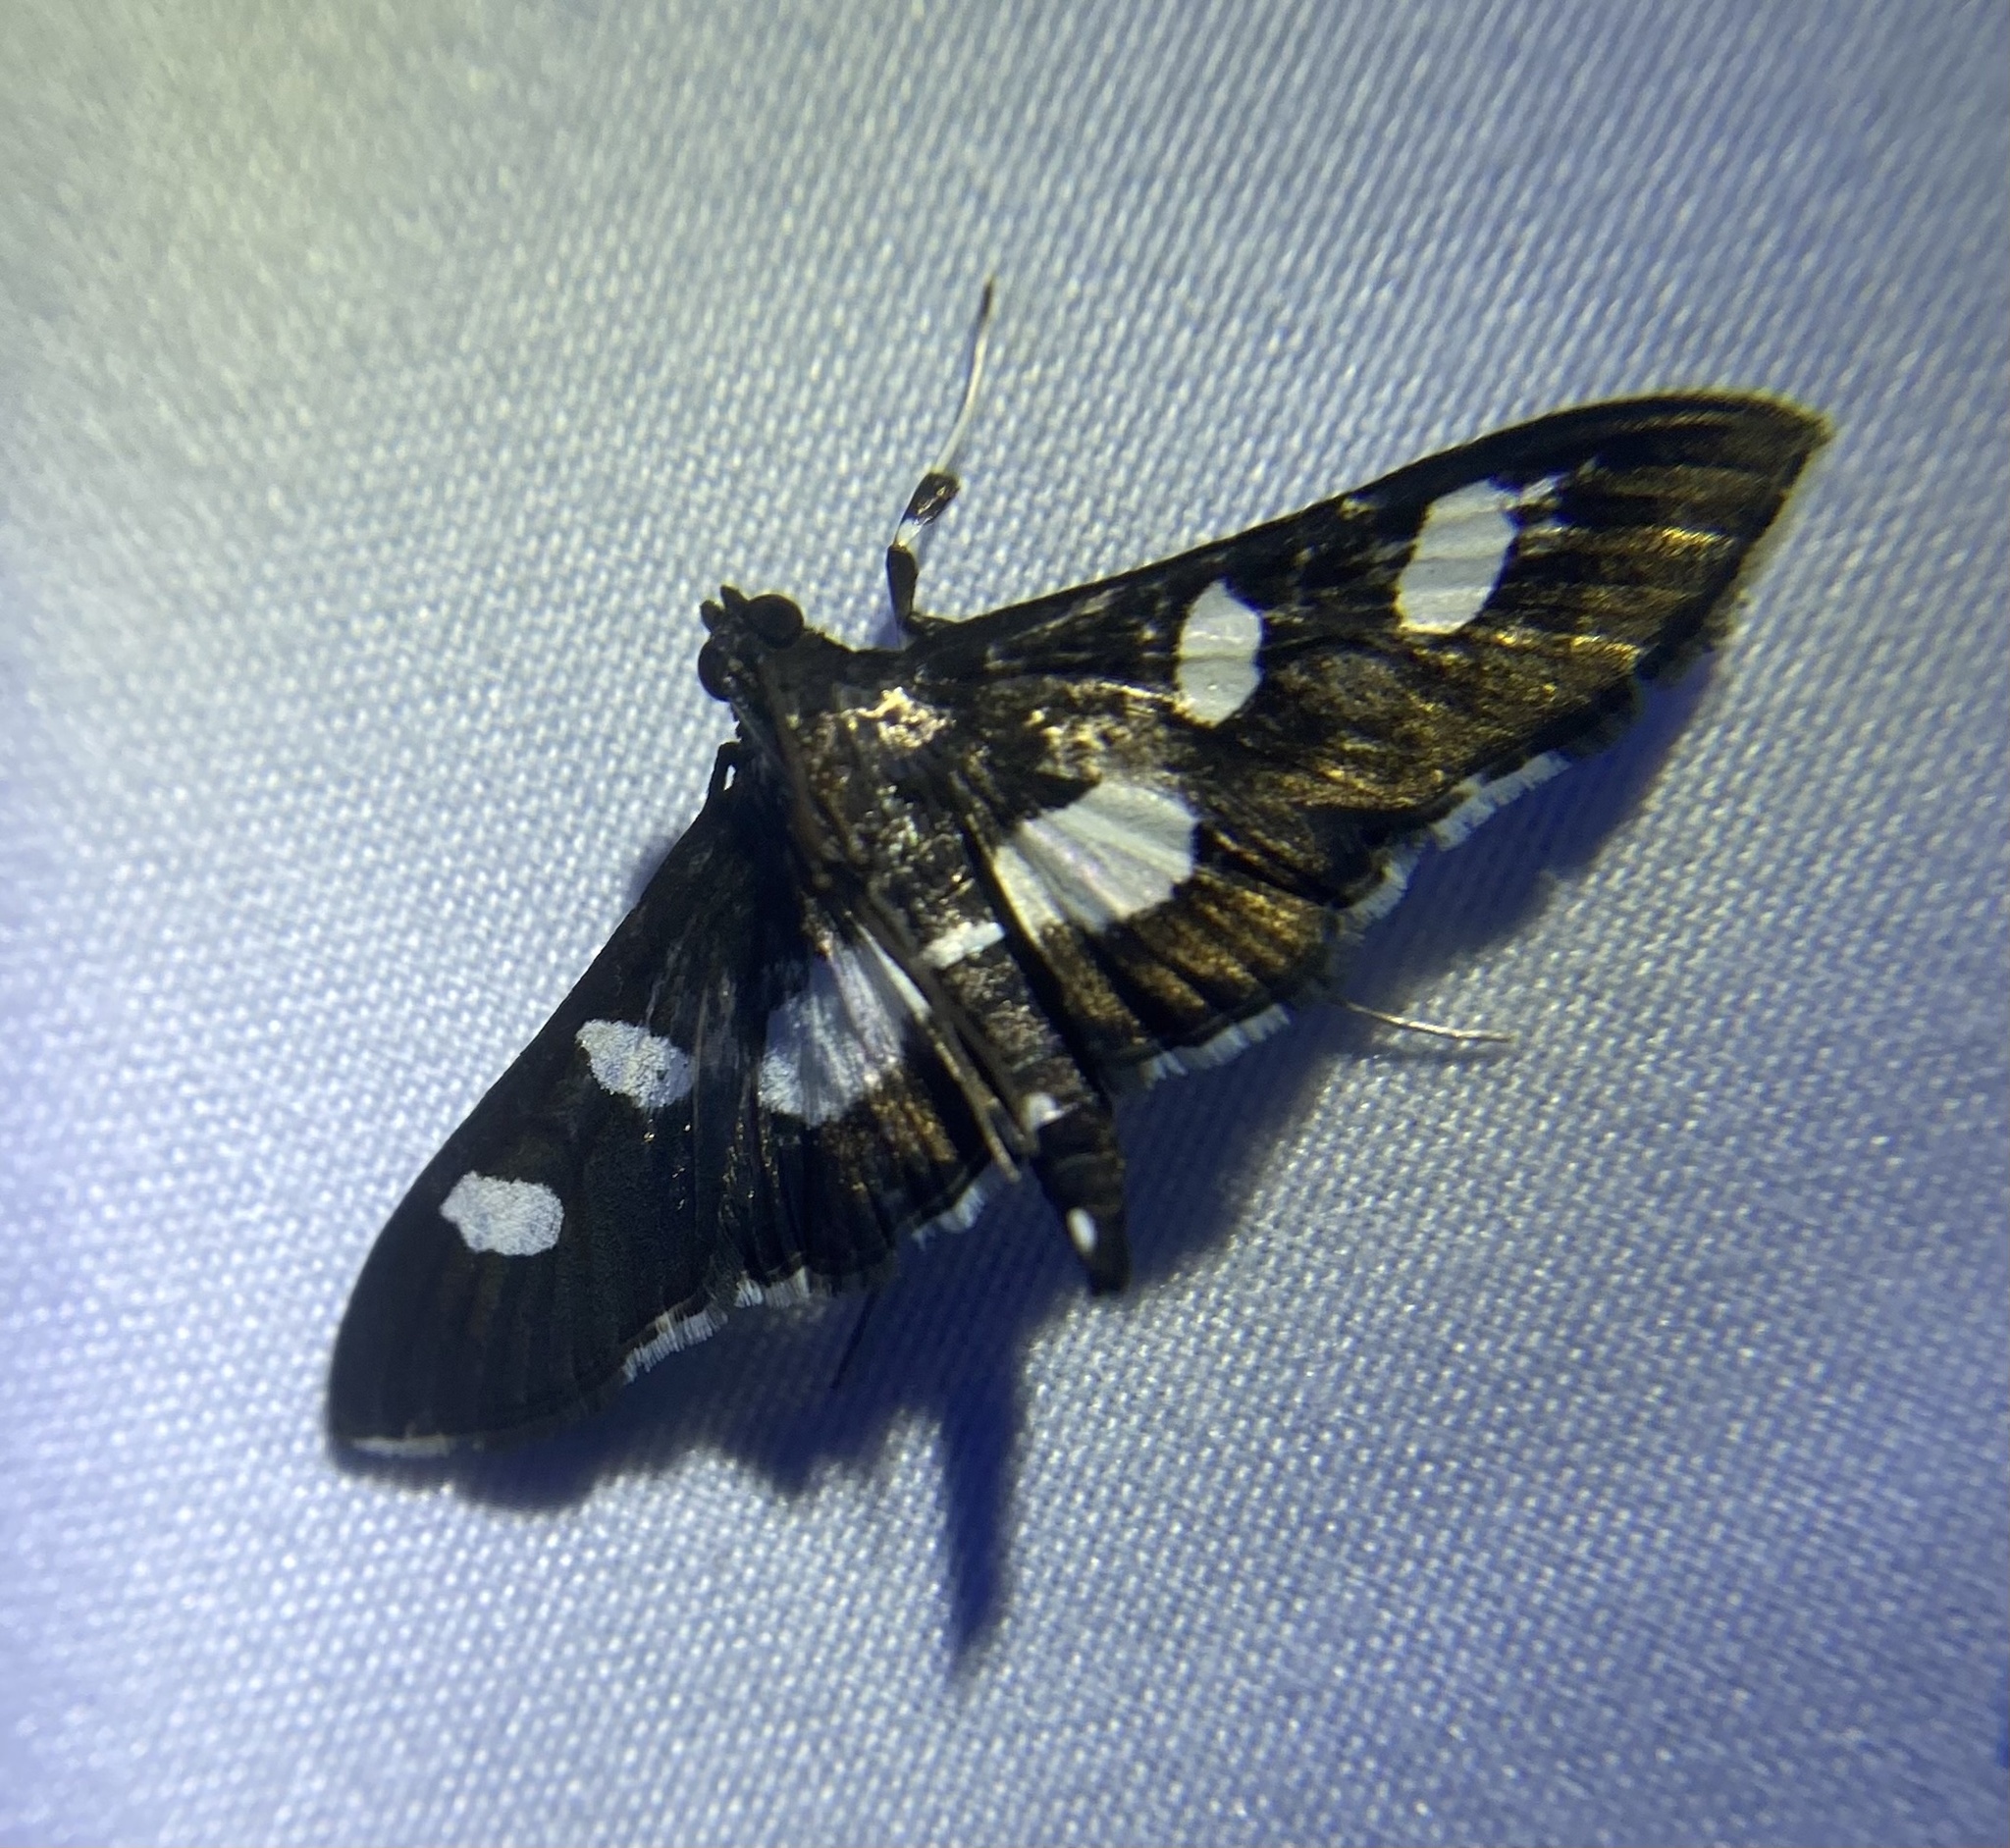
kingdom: Animalia
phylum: Arthropoda
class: Insecta
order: Lepidoptera
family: Crambidae
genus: Desmia
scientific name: Desmia funeralis
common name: Grape leaf folder moth
